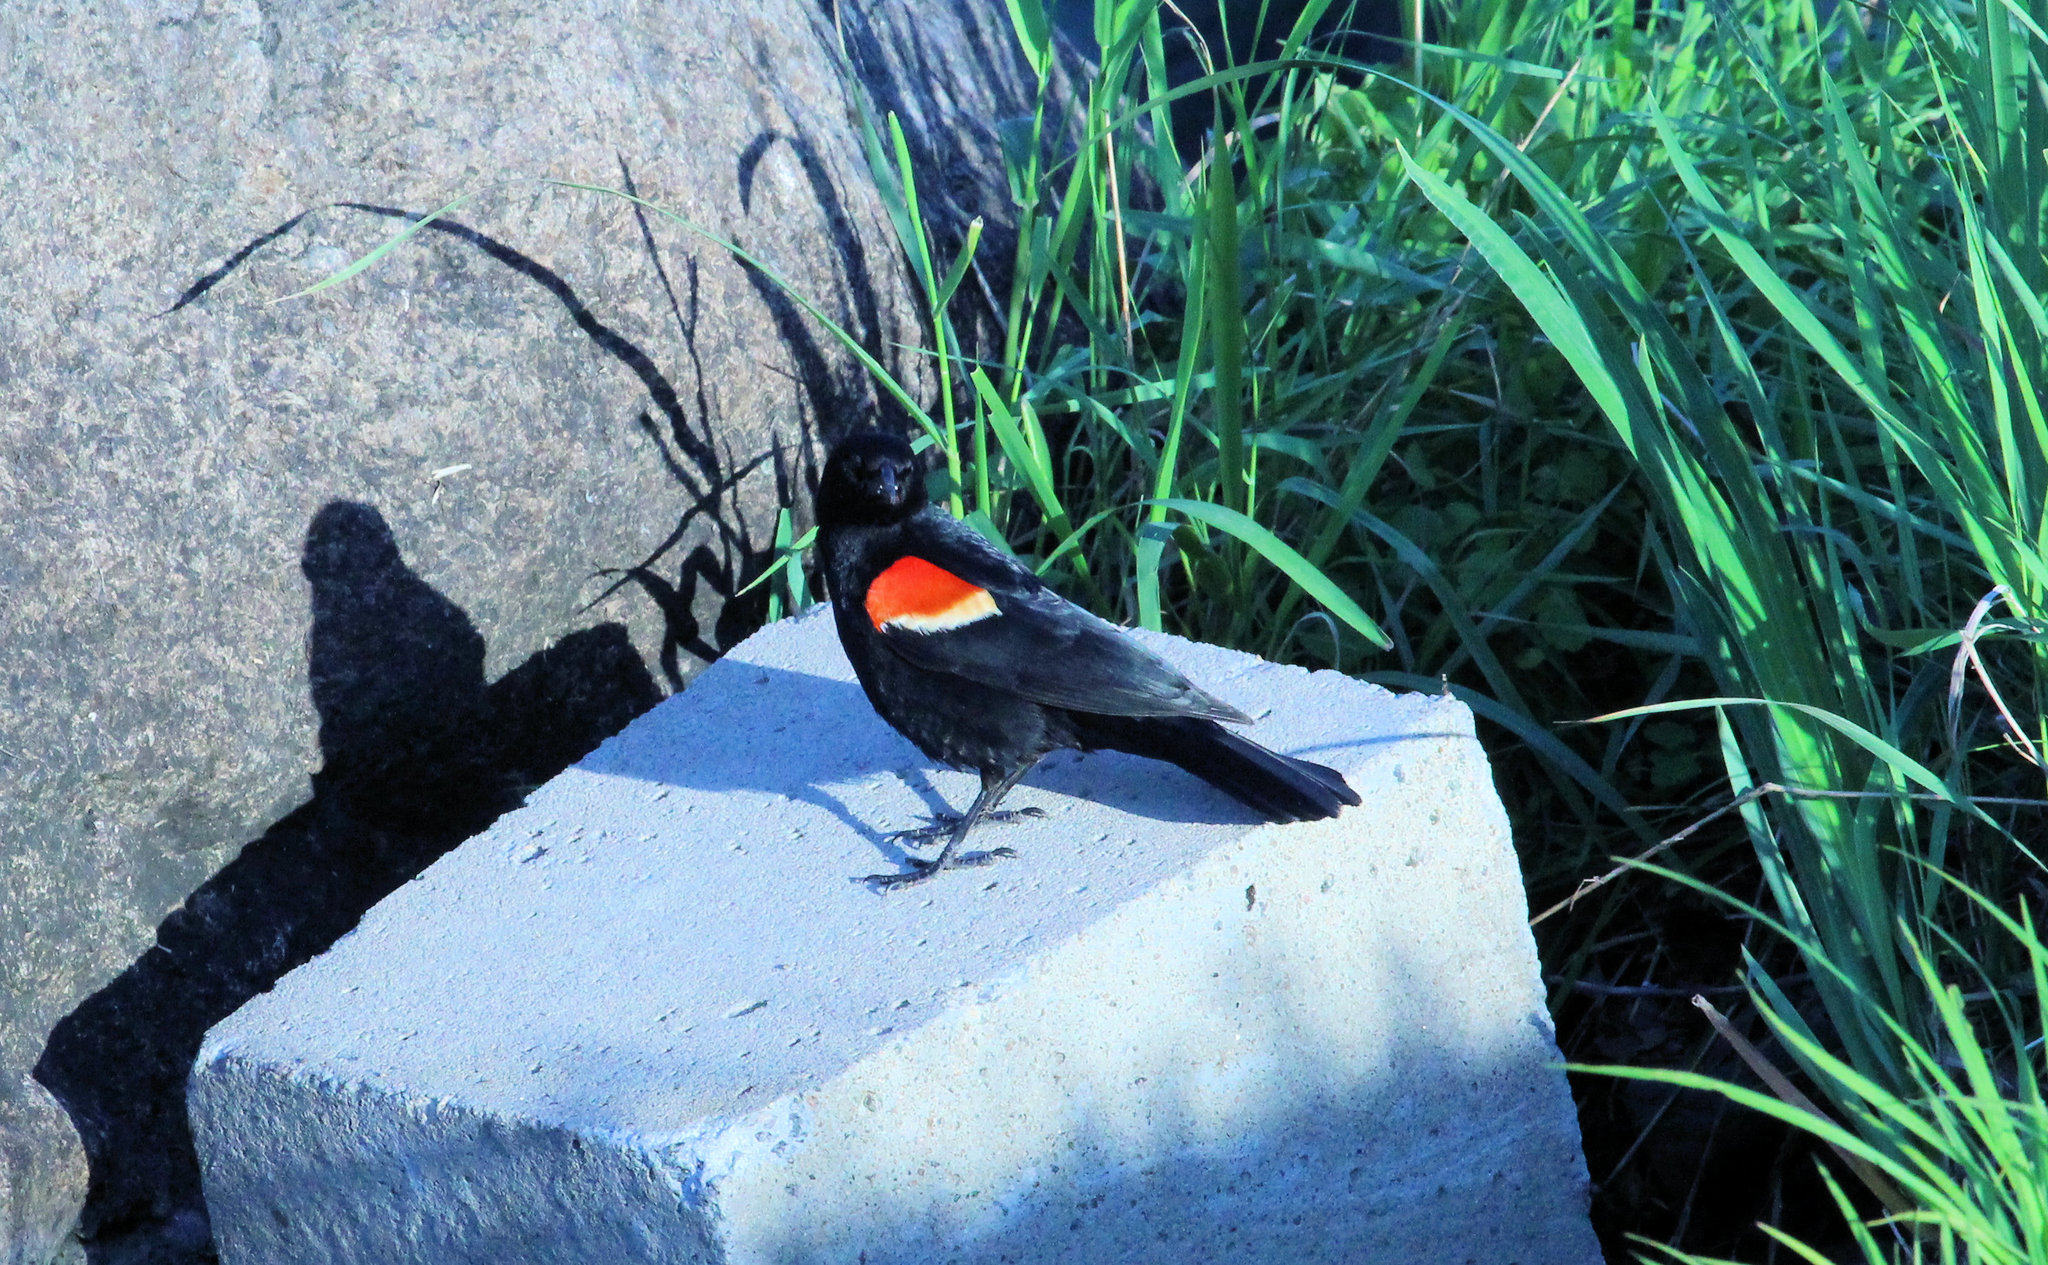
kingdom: Animalia
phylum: Chordata
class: Aves
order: Passeriformes
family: Icteridae
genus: Agelaius
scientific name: Agelaius phoeniceus
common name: Red-winged blackbird
